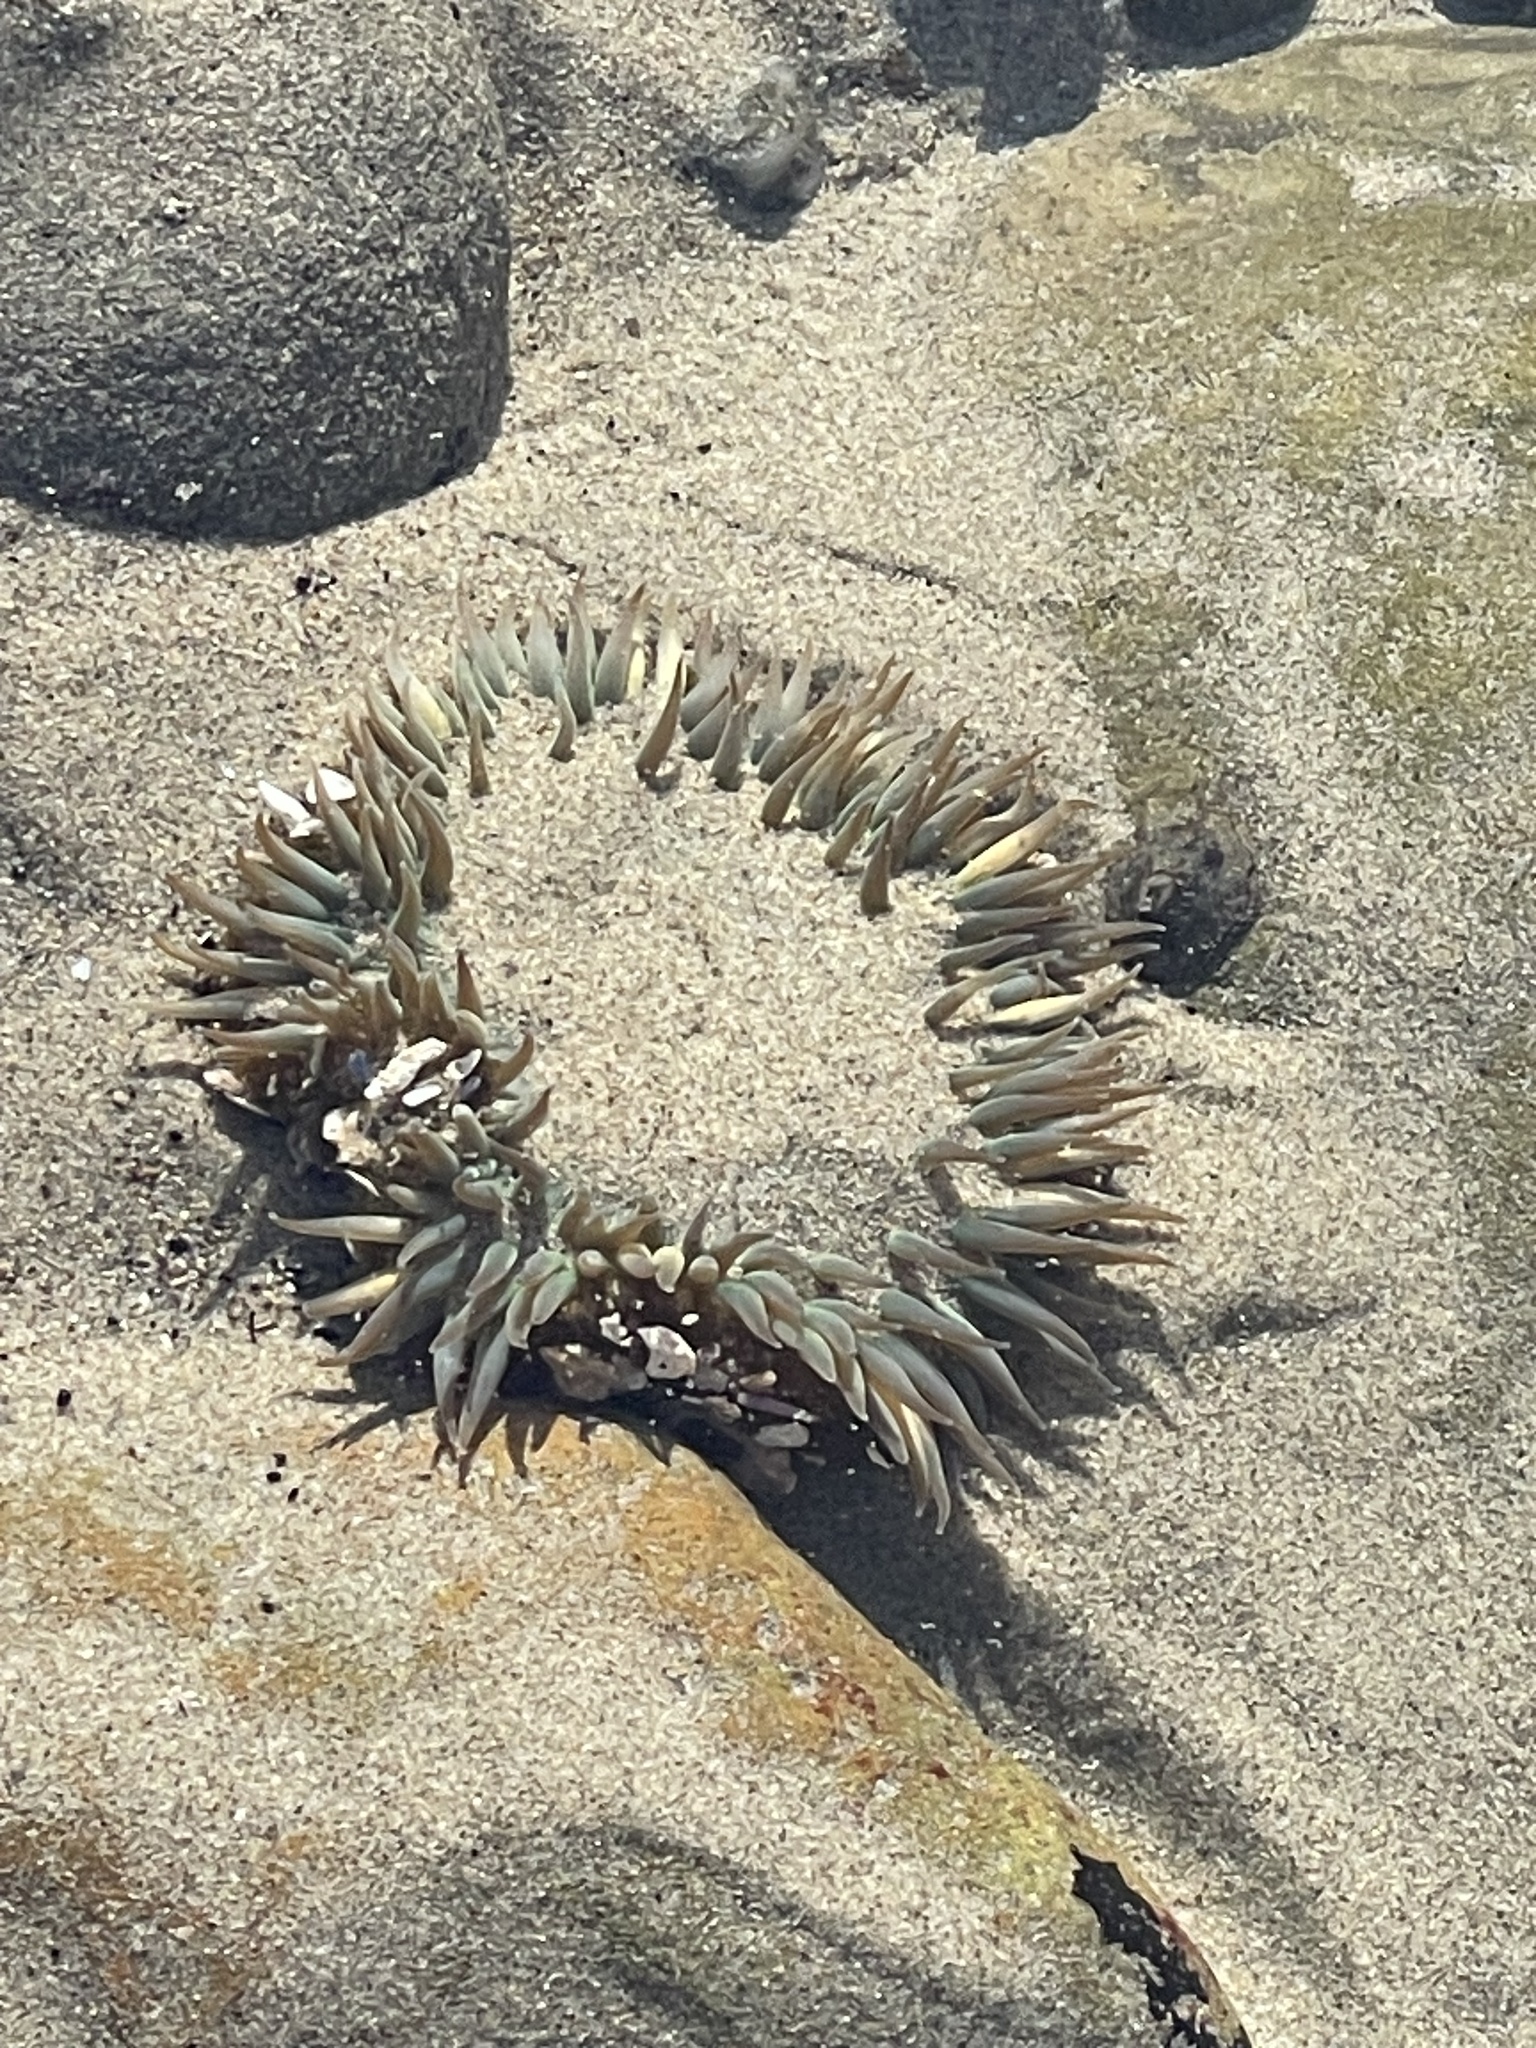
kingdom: Animalia
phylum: Cnidaria
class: Anthozoa
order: Actiniaria
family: Actiniidae
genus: Anthopleura
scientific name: Anthopleura sola
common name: Sun anemone
